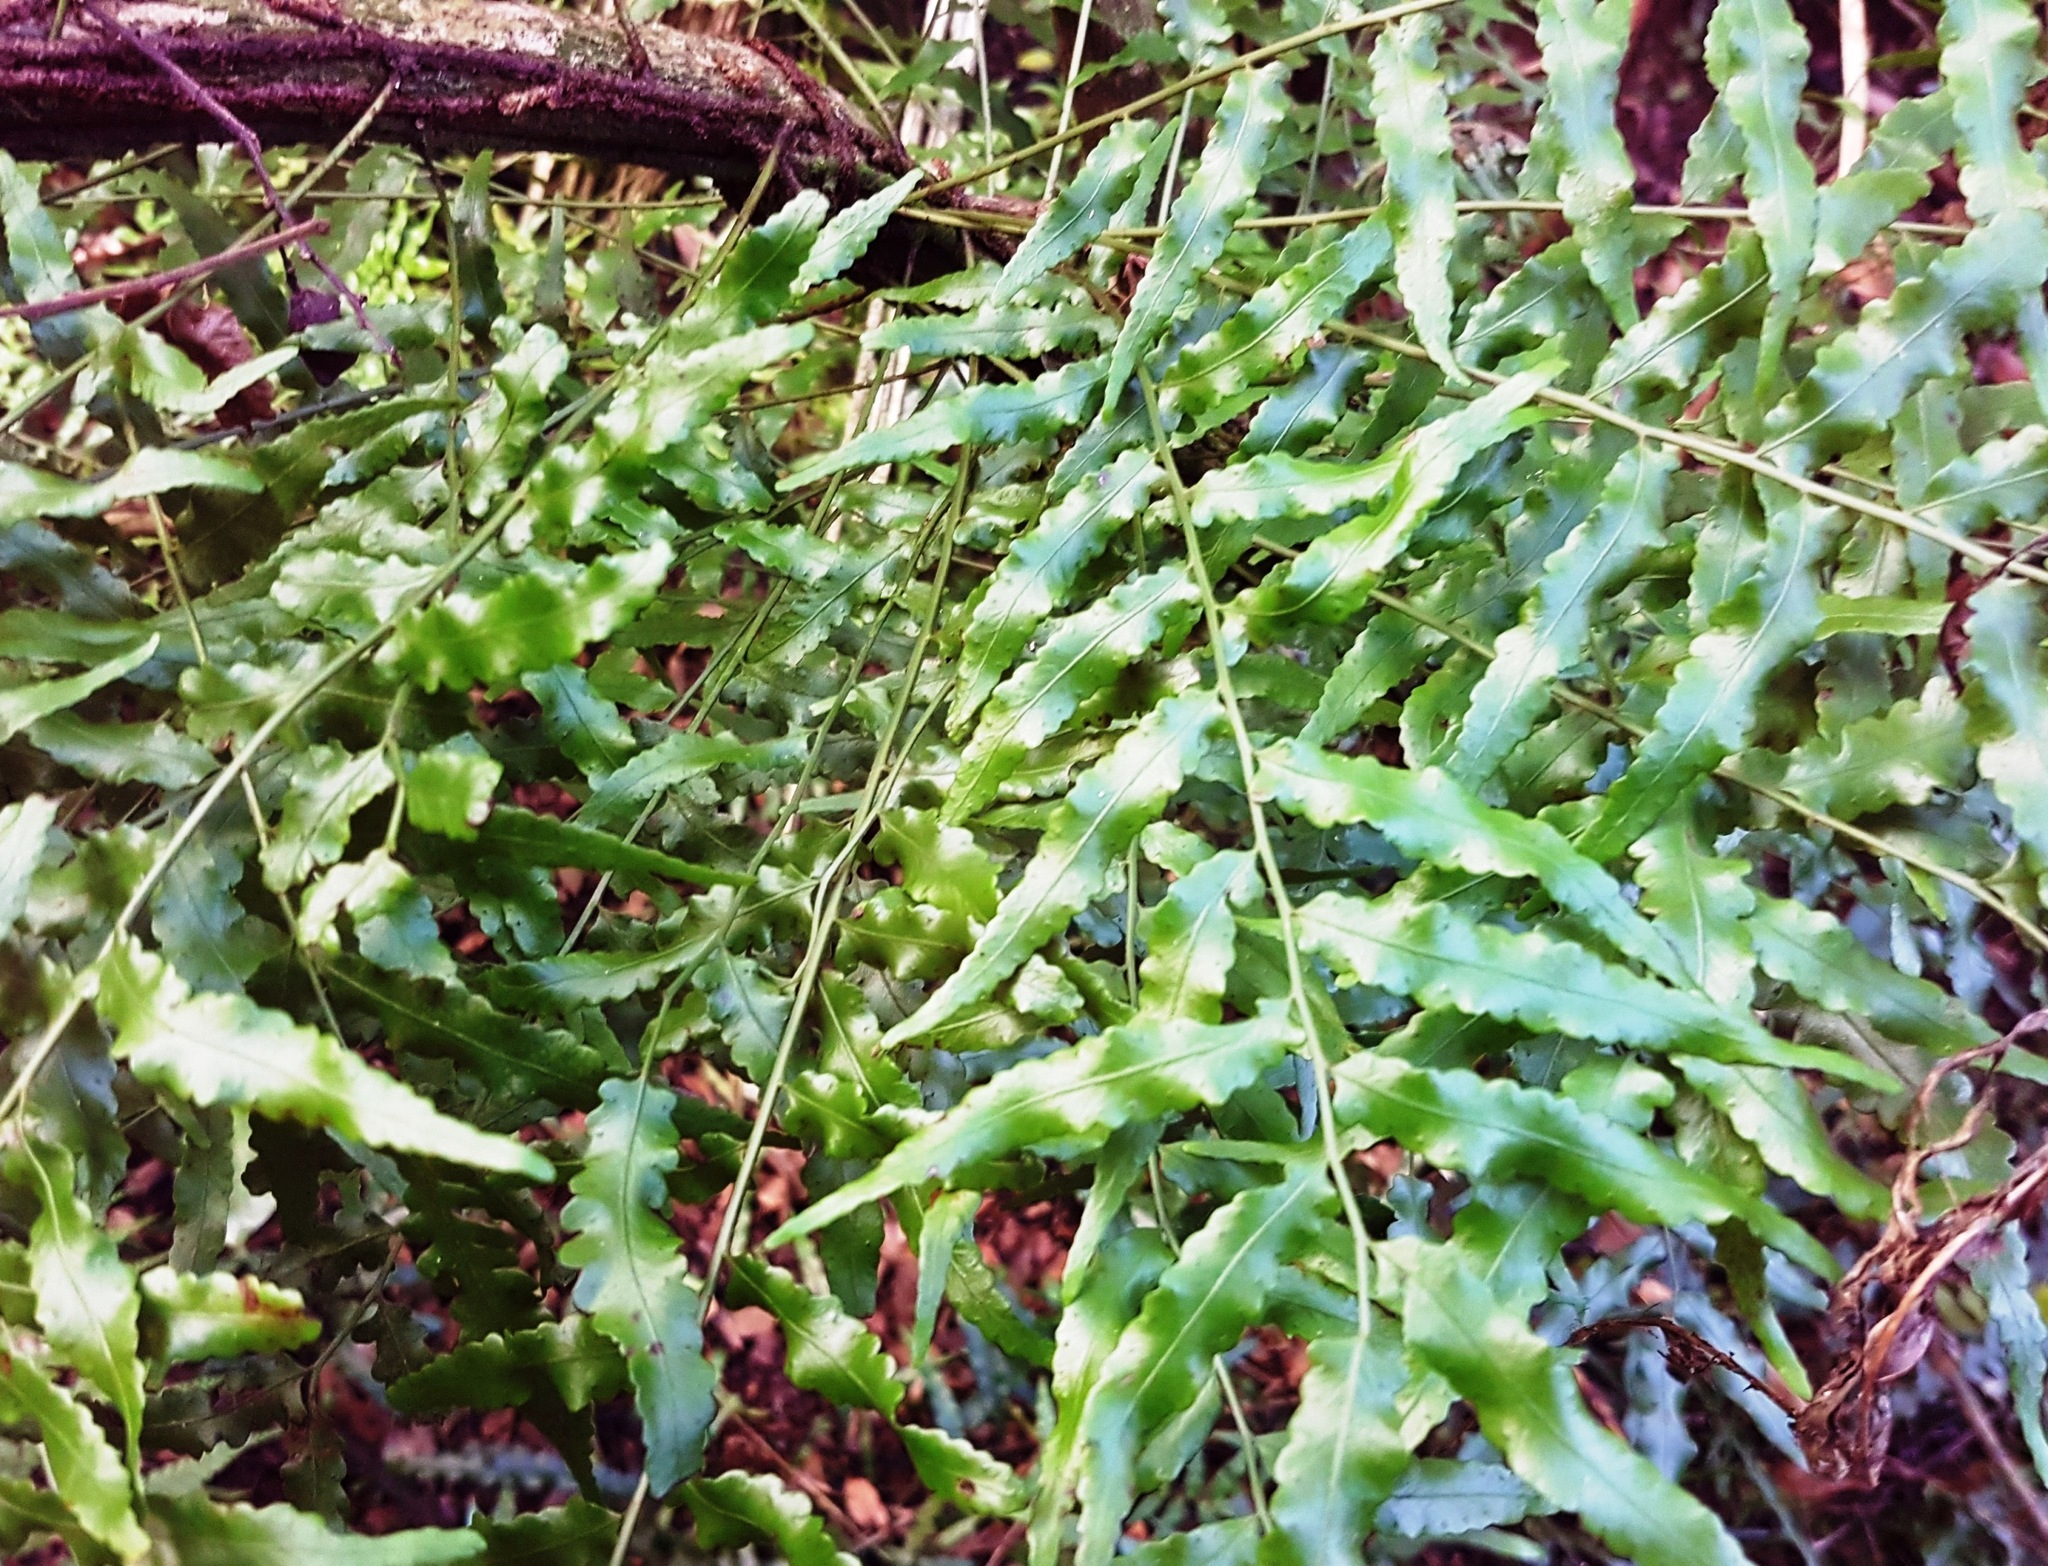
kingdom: Plantae
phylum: Tracheophyta
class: Polypodiopsida
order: Polypodiales
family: Tectariaceae
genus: Arthropteris
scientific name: Arthropteris tenella
